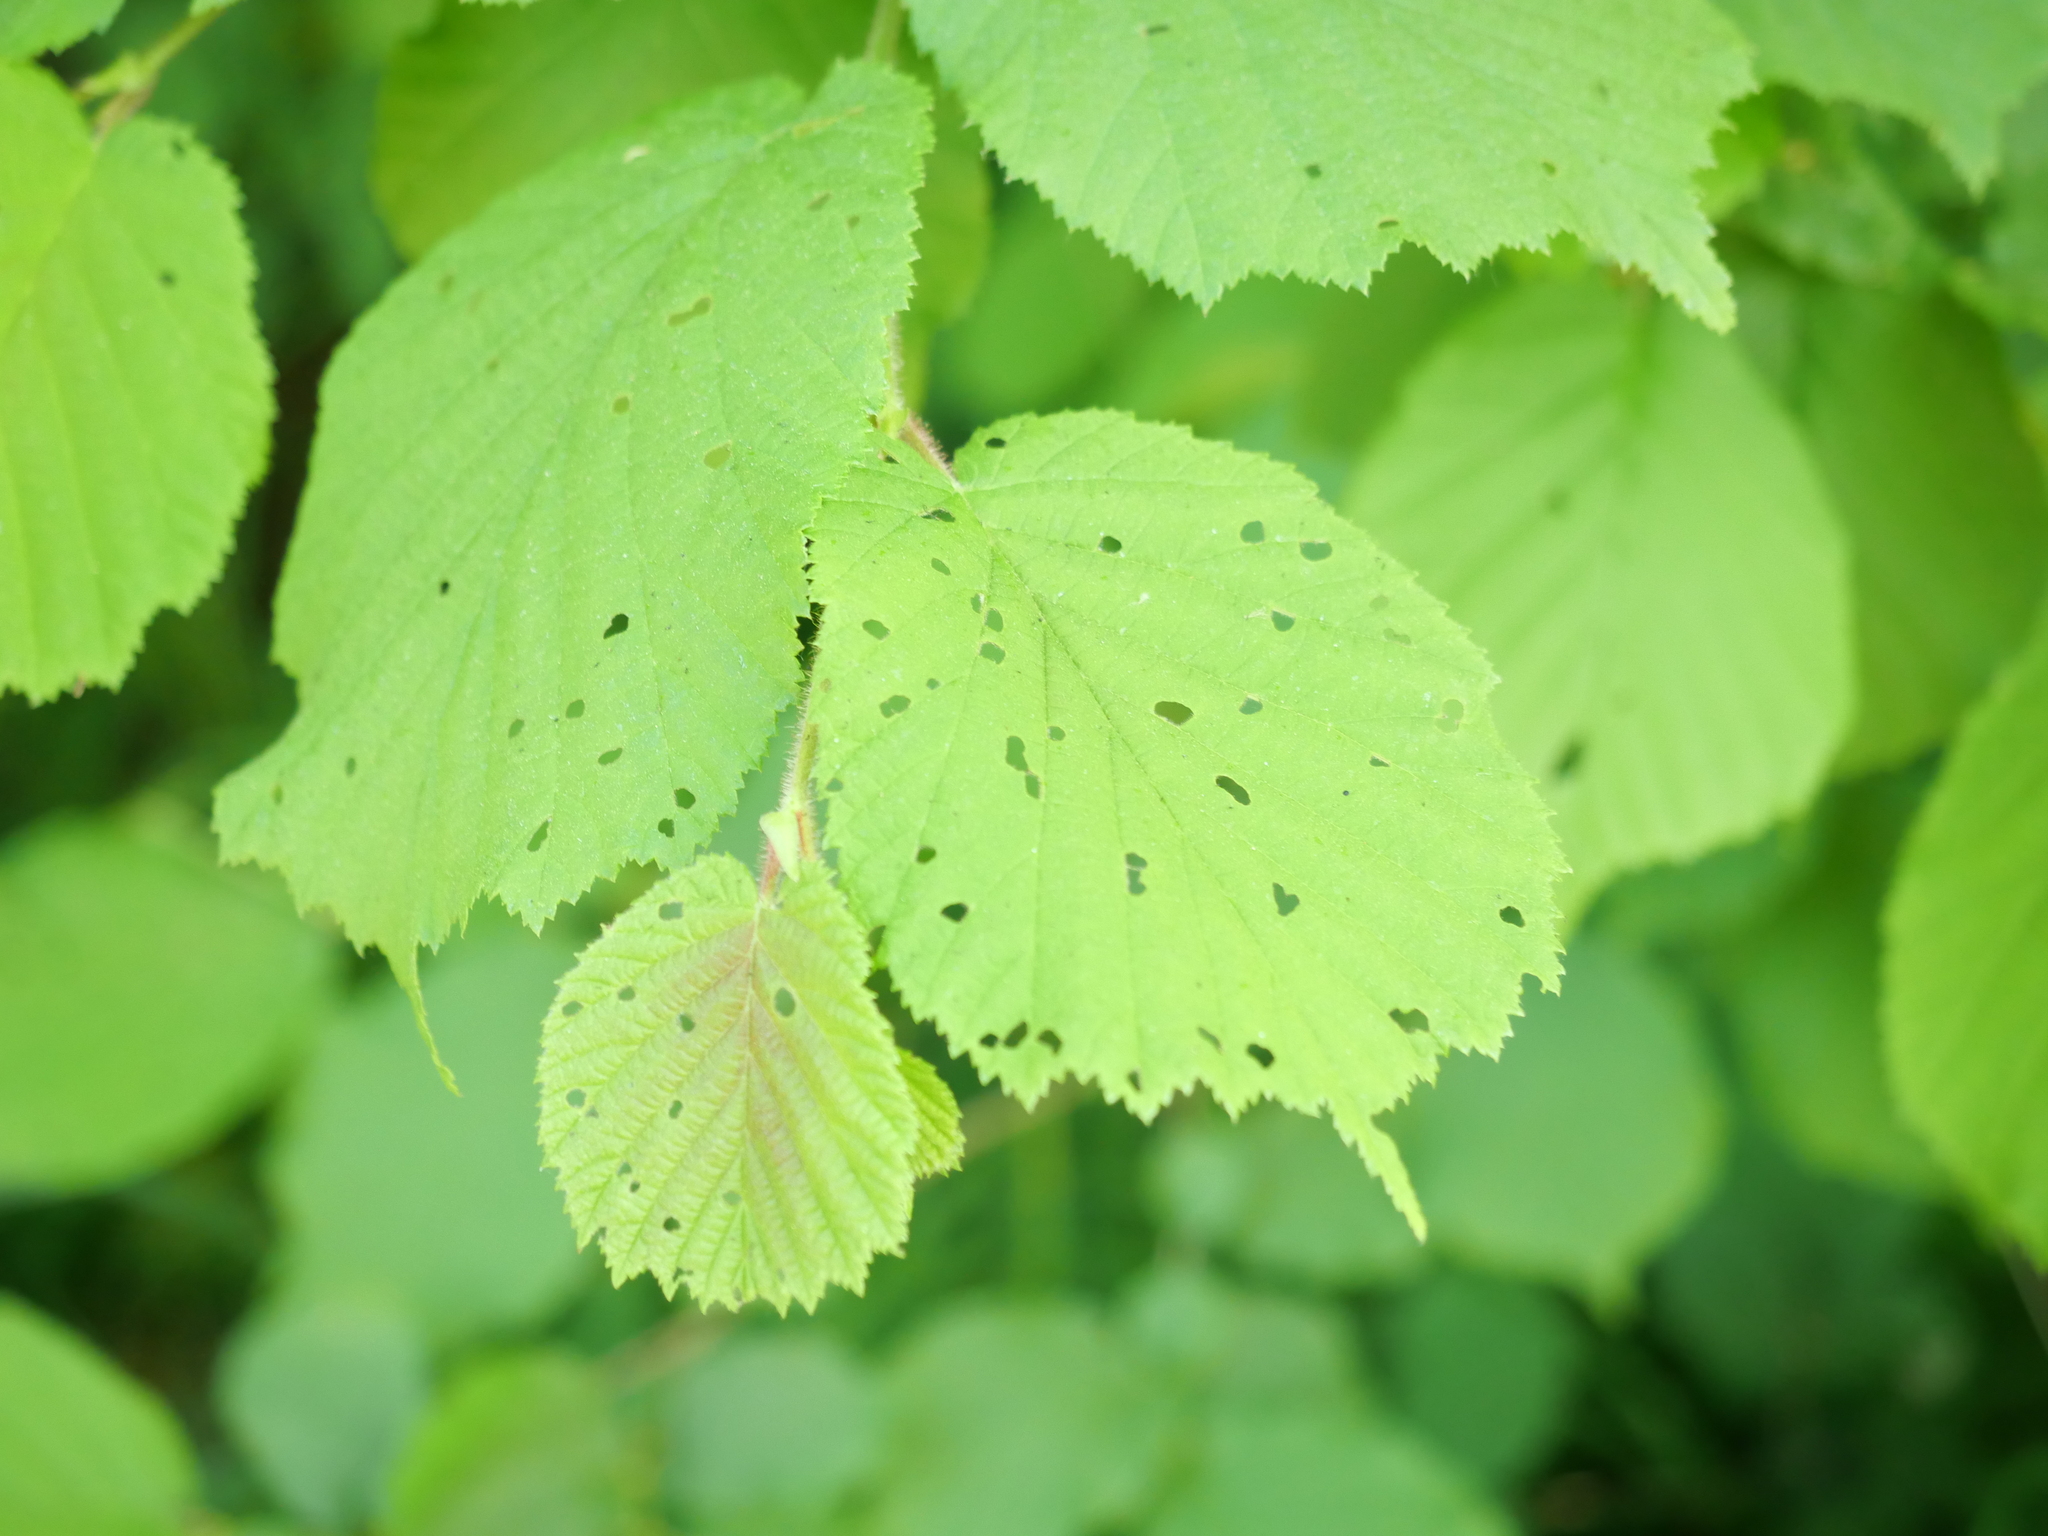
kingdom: Plantae
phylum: Tracheophyta
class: Magnoliopsida
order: Fagales
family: Betulaceae
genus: Corylus
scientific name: Corylus avellana
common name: European hazel
